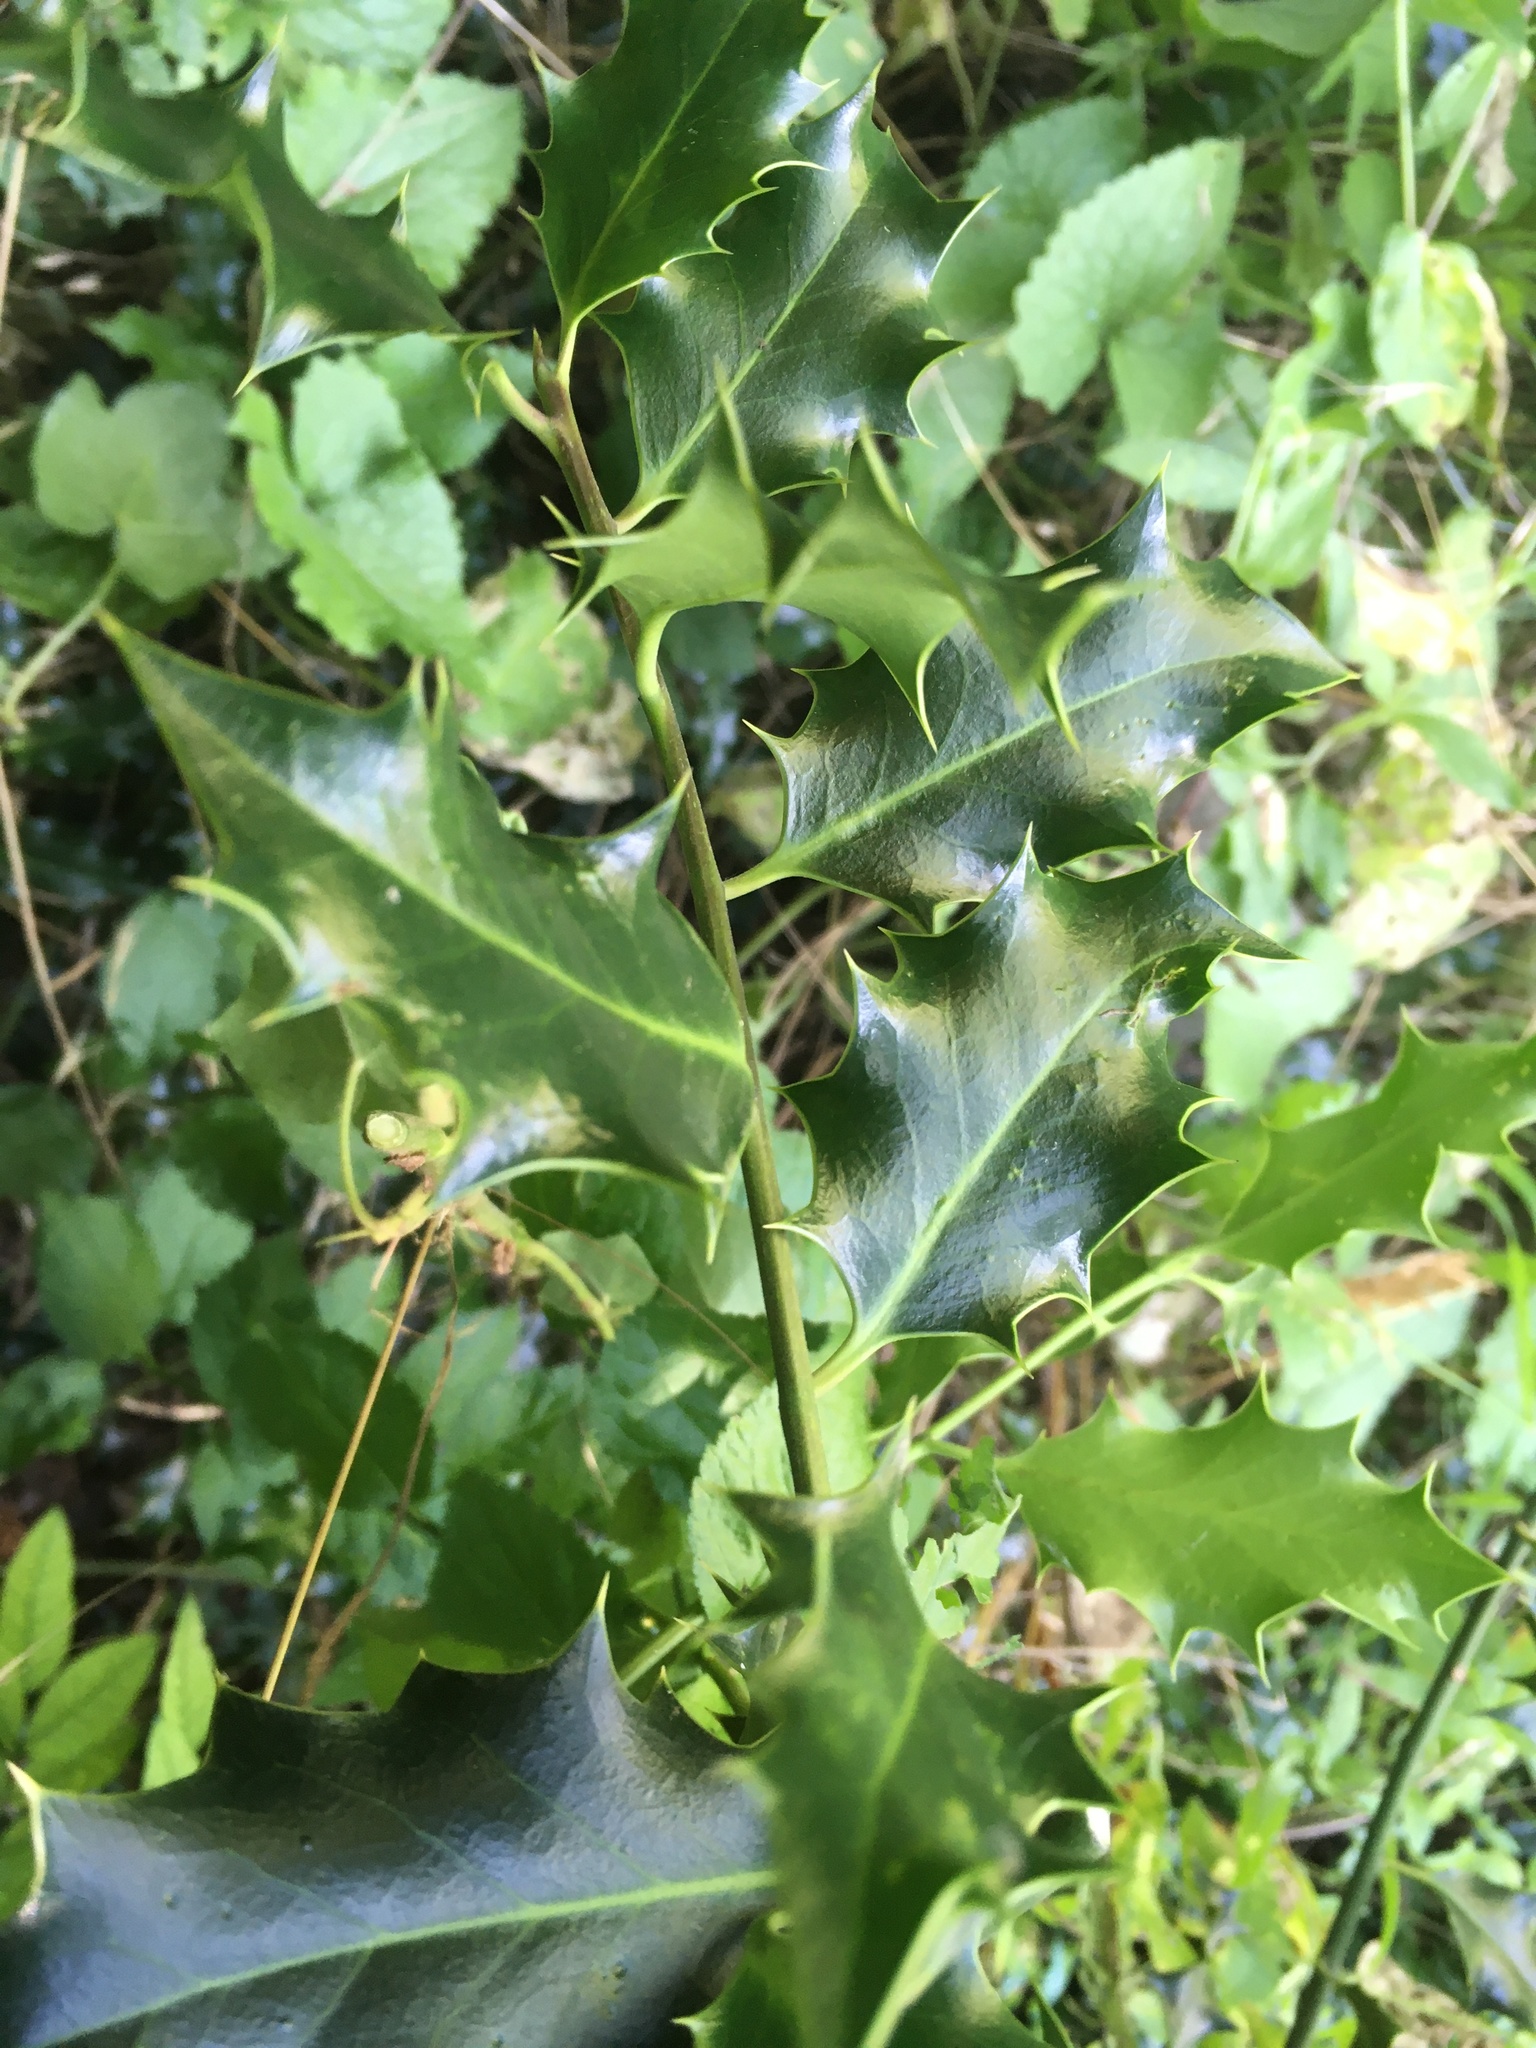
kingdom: Plantae
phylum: Tracheophyta
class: Magnoliopsida
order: Aquifoliales
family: Aquifoliaceae
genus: Ilex
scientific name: Ilex aquifolium
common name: English holly
